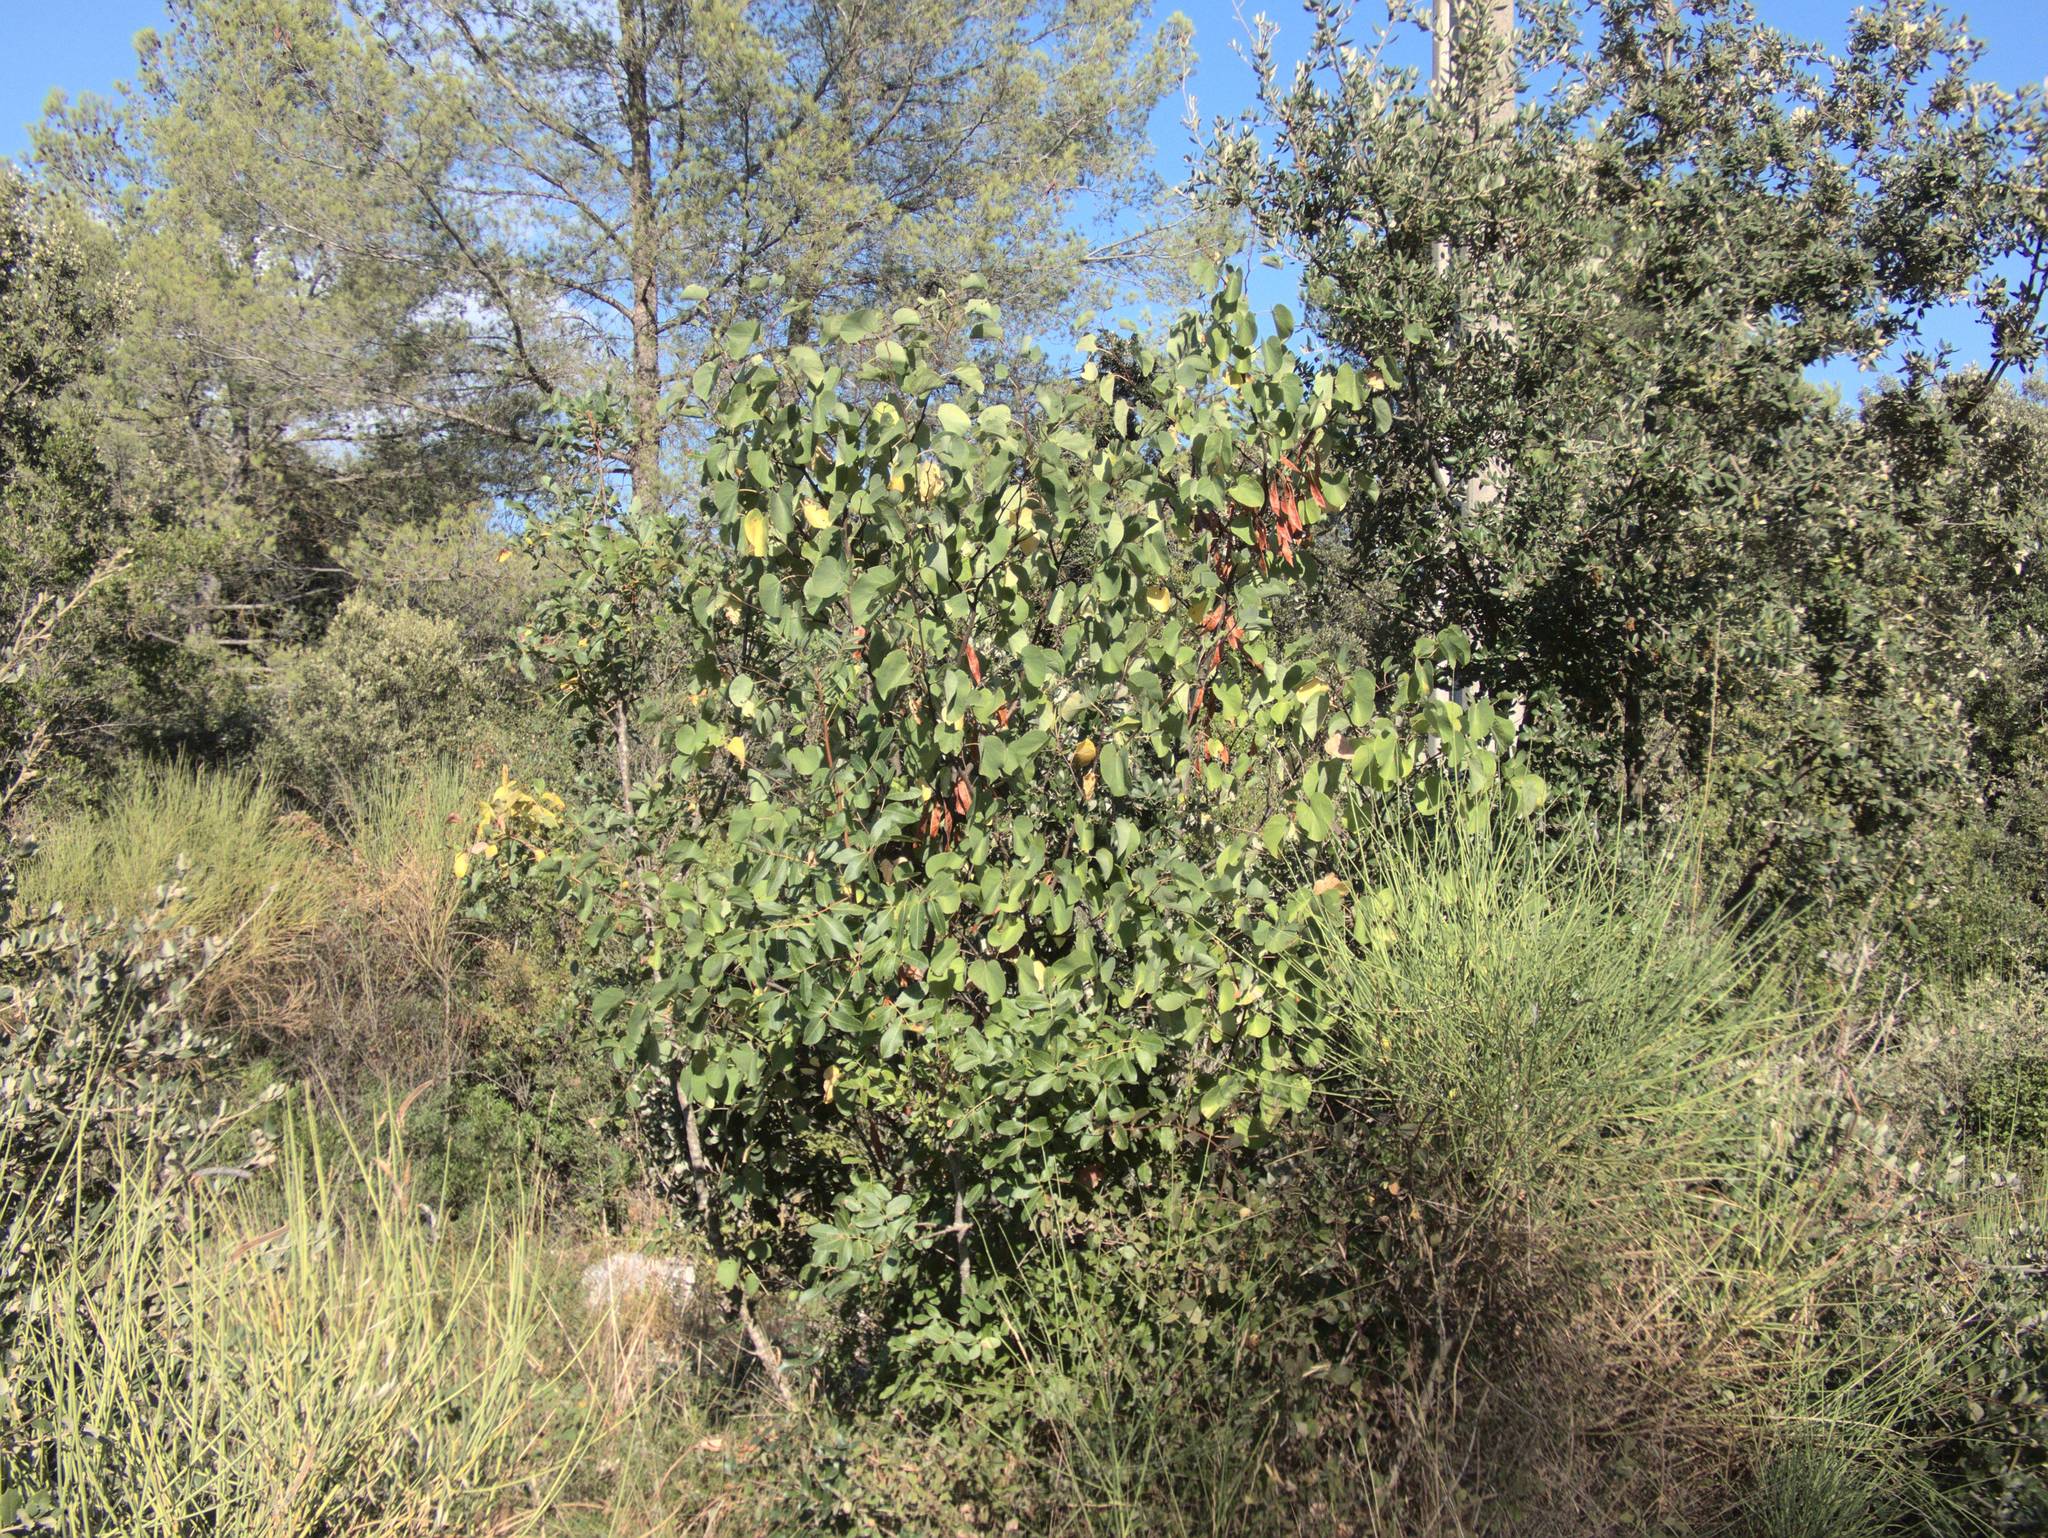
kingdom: Plantae
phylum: Tracheophyta
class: Magnoliopsida
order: Fabales
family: Fabaceae
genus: Cercis
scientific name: Cercis siliquastrum
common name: Judas tree
